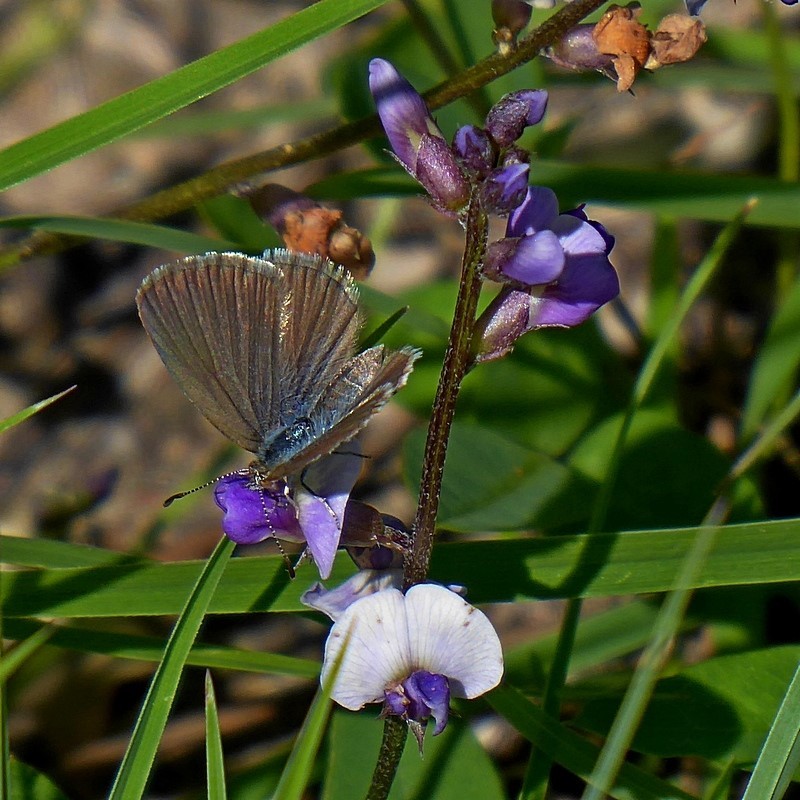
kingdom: Animalia
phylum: Arthropoda
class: Insecta
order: Lepidoptera
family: Lycaenidae
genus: Zizina
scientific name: Zizina labradus
